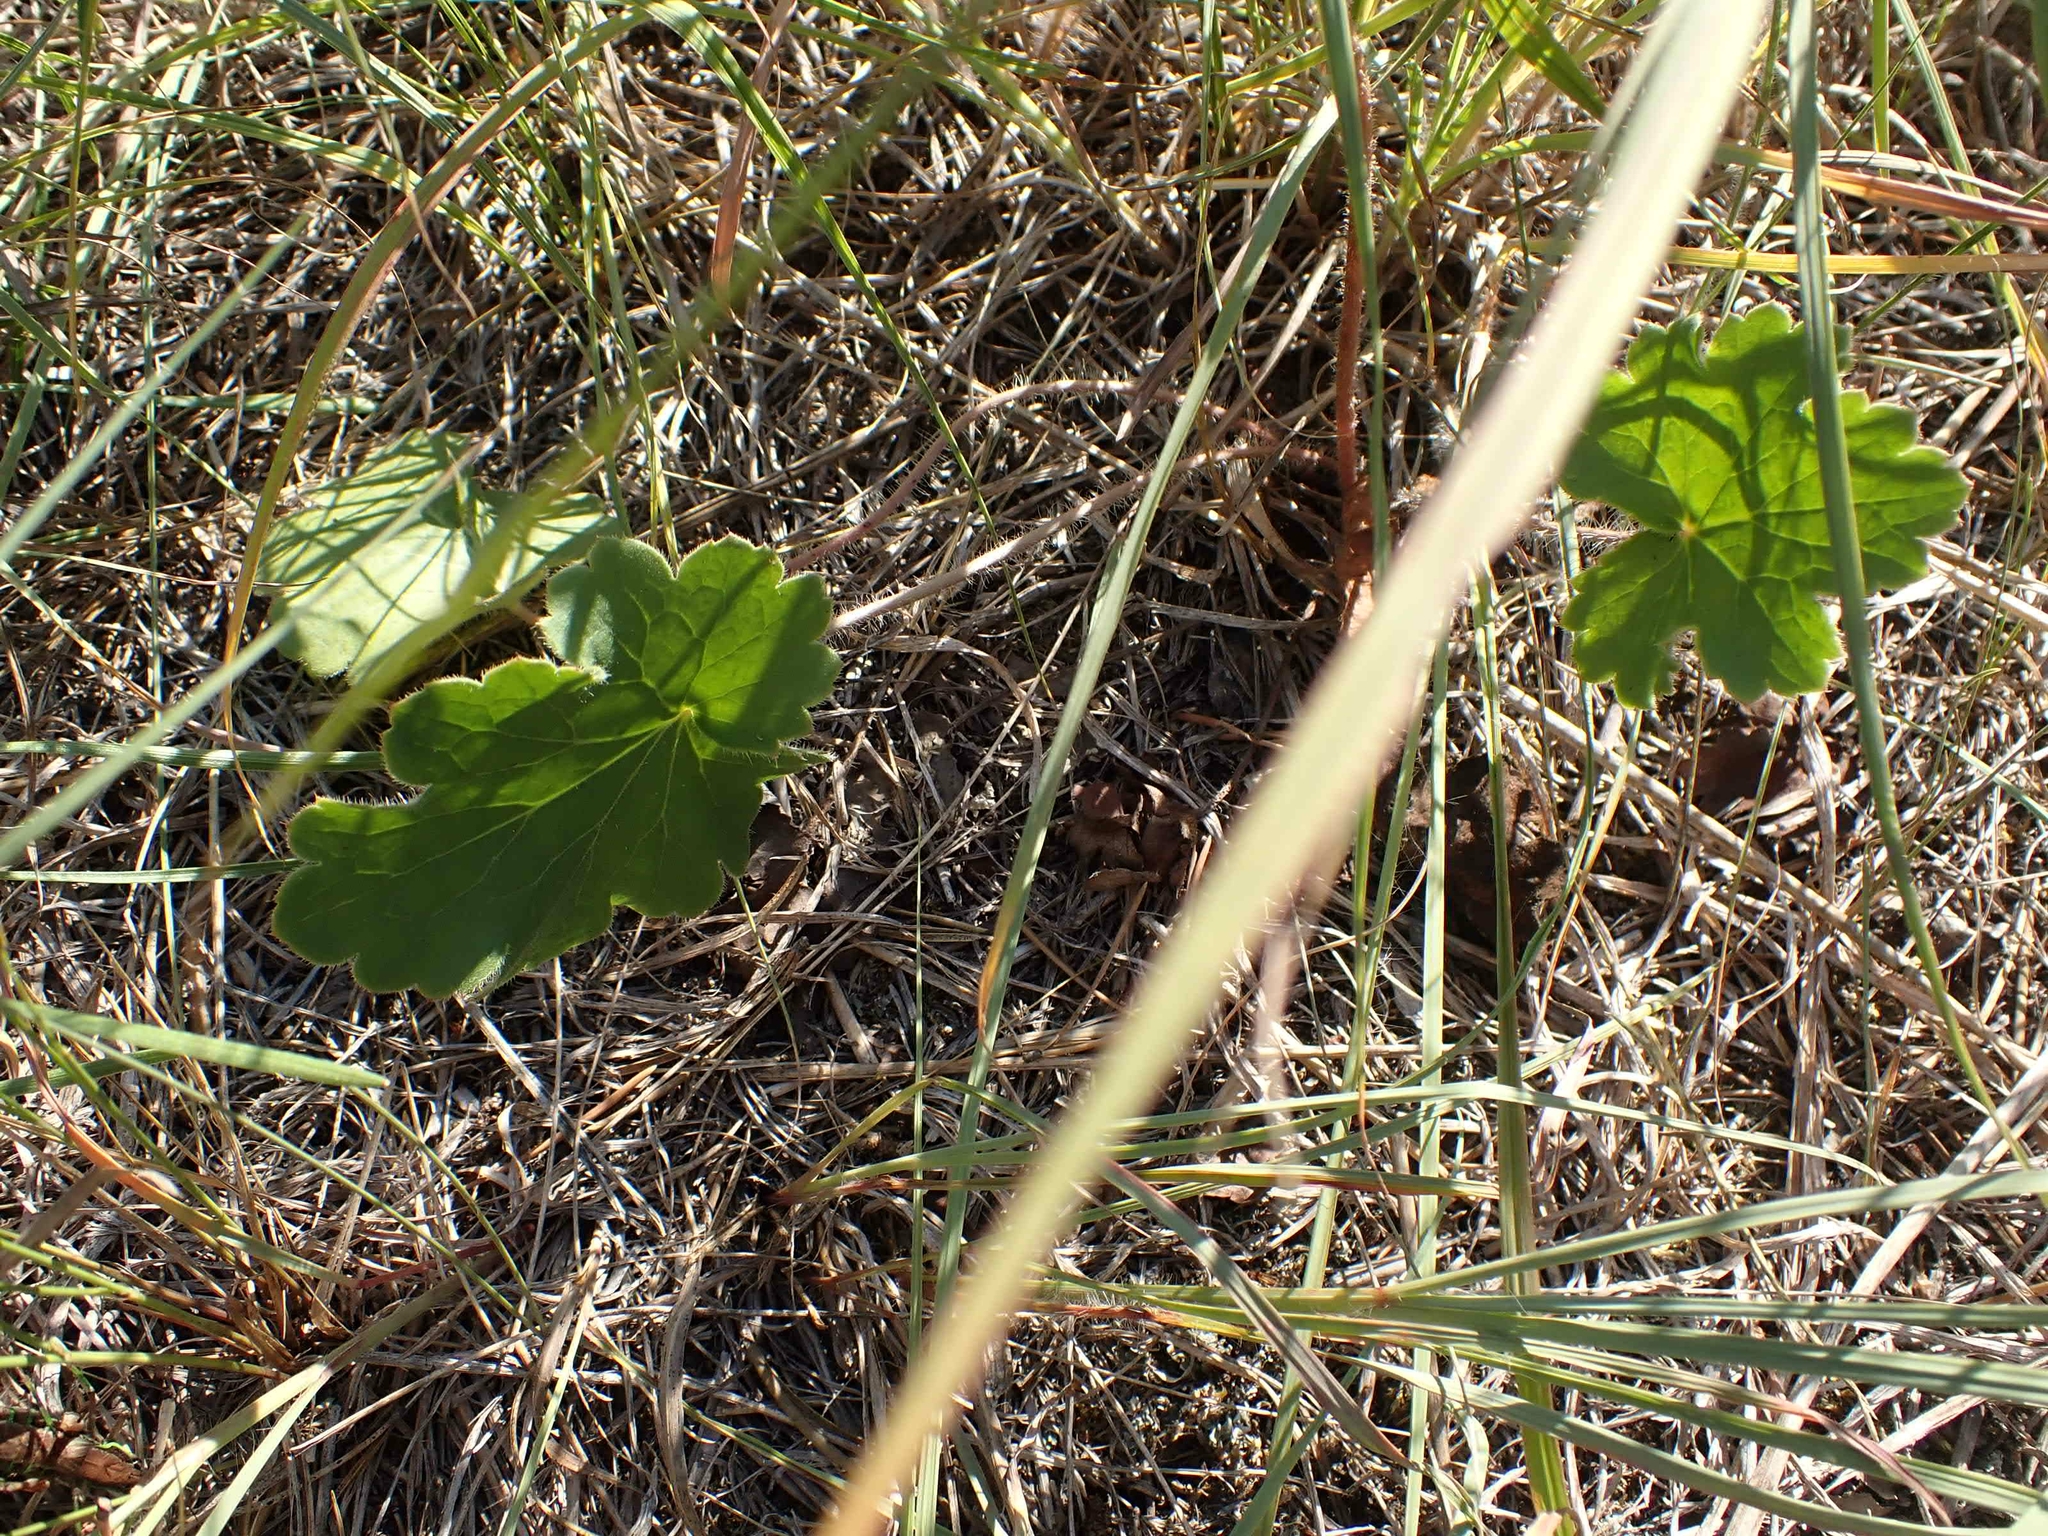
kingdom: Plantae
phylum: Tracheophyta
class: Magnoliopsida
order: Saxifragales
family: Saxifragaceae
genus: Heuchera
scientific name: Heuchera richardsonii
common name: Richardson's alumroot
